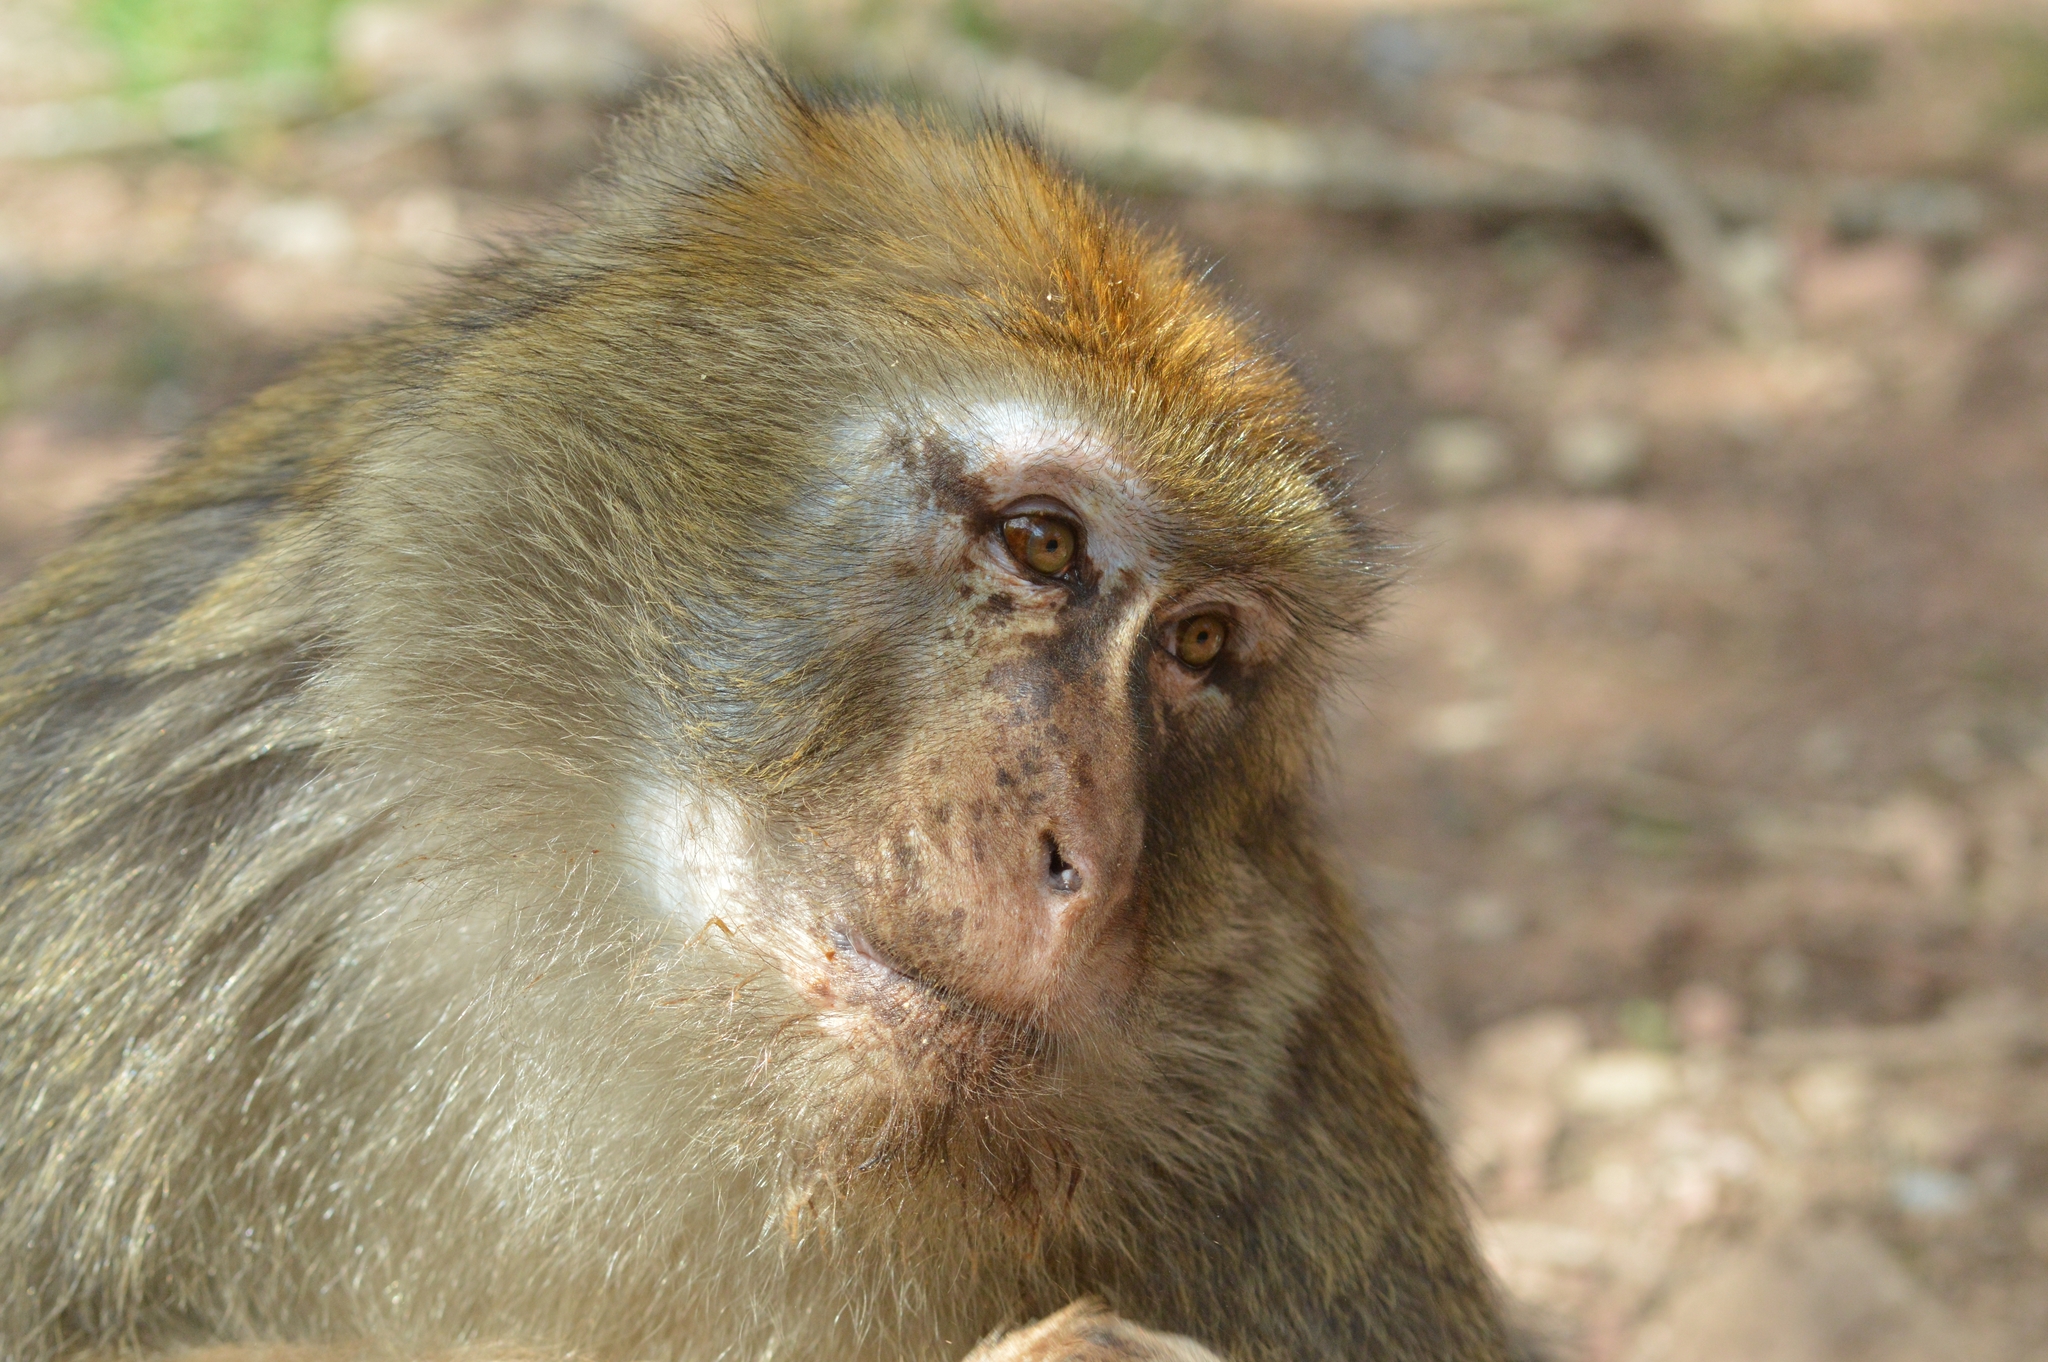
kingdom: Animalia
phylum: Chordata
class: Mammalia
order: Primates
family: Cercopithecidae
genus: Macaca
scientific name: Macaca sylvanus
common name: Barbary macaque
